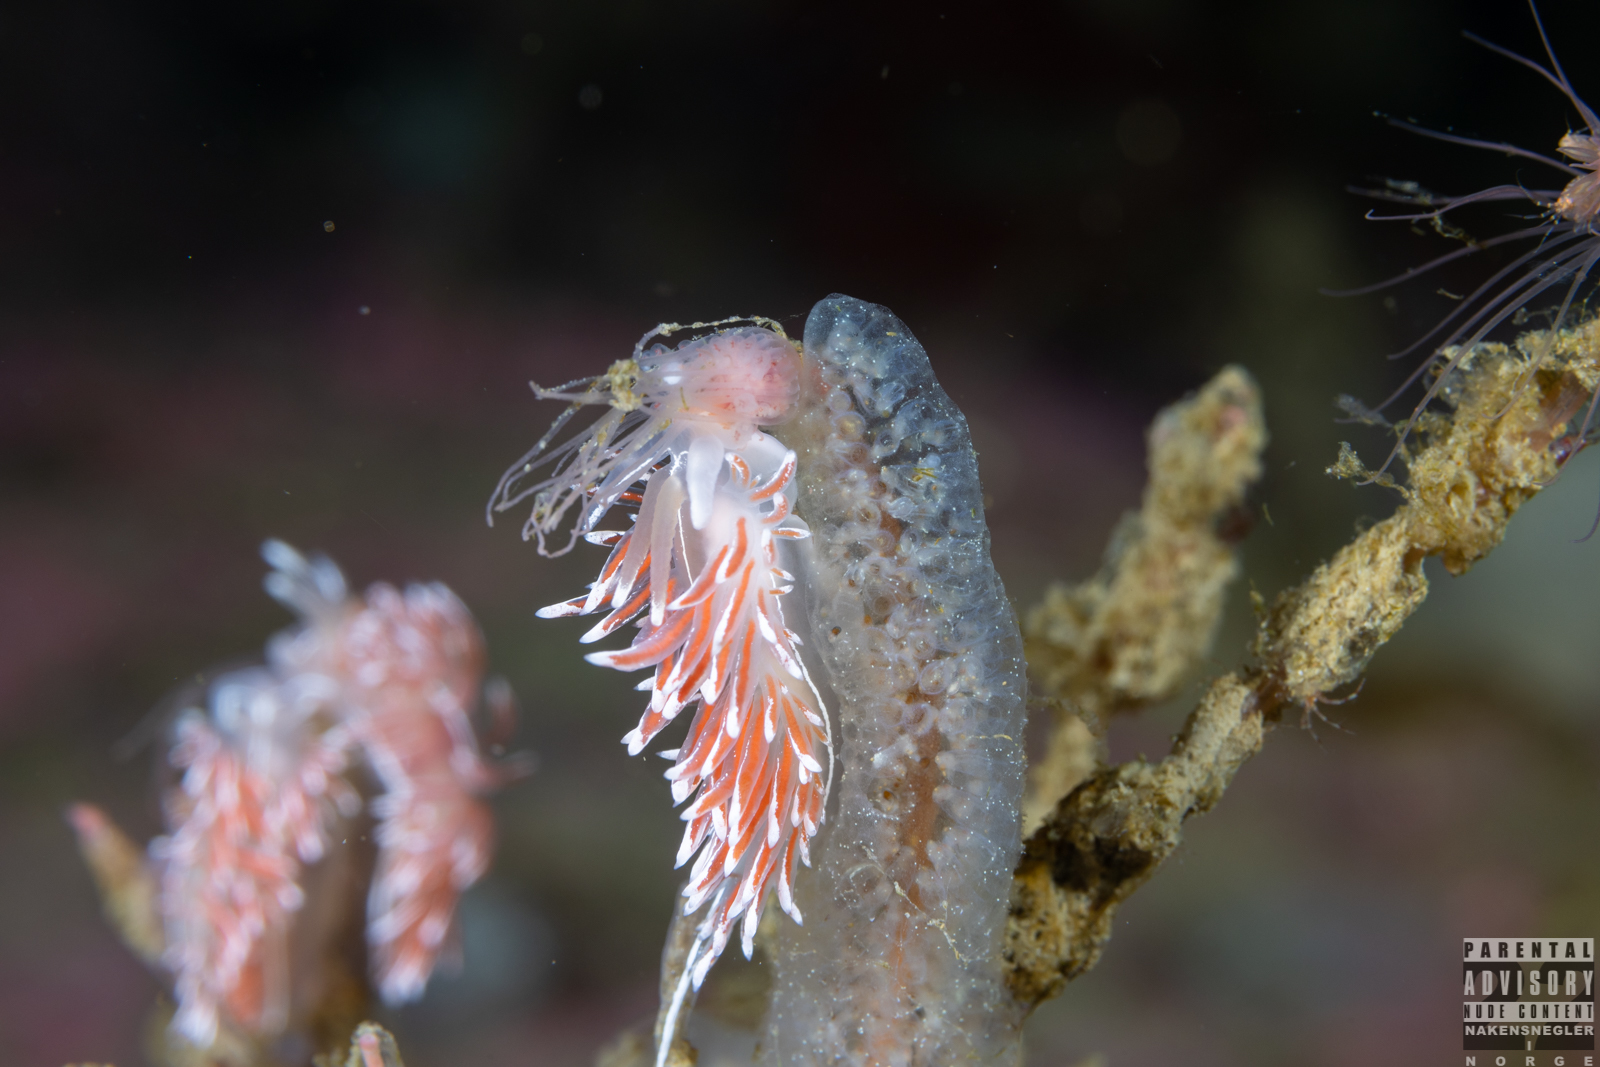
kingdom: Animalia
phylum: Mollusca
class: Gastropoda
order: Nudibranchia
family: Coryphellidae
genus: Coryphella
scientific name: Coryphella lineata
